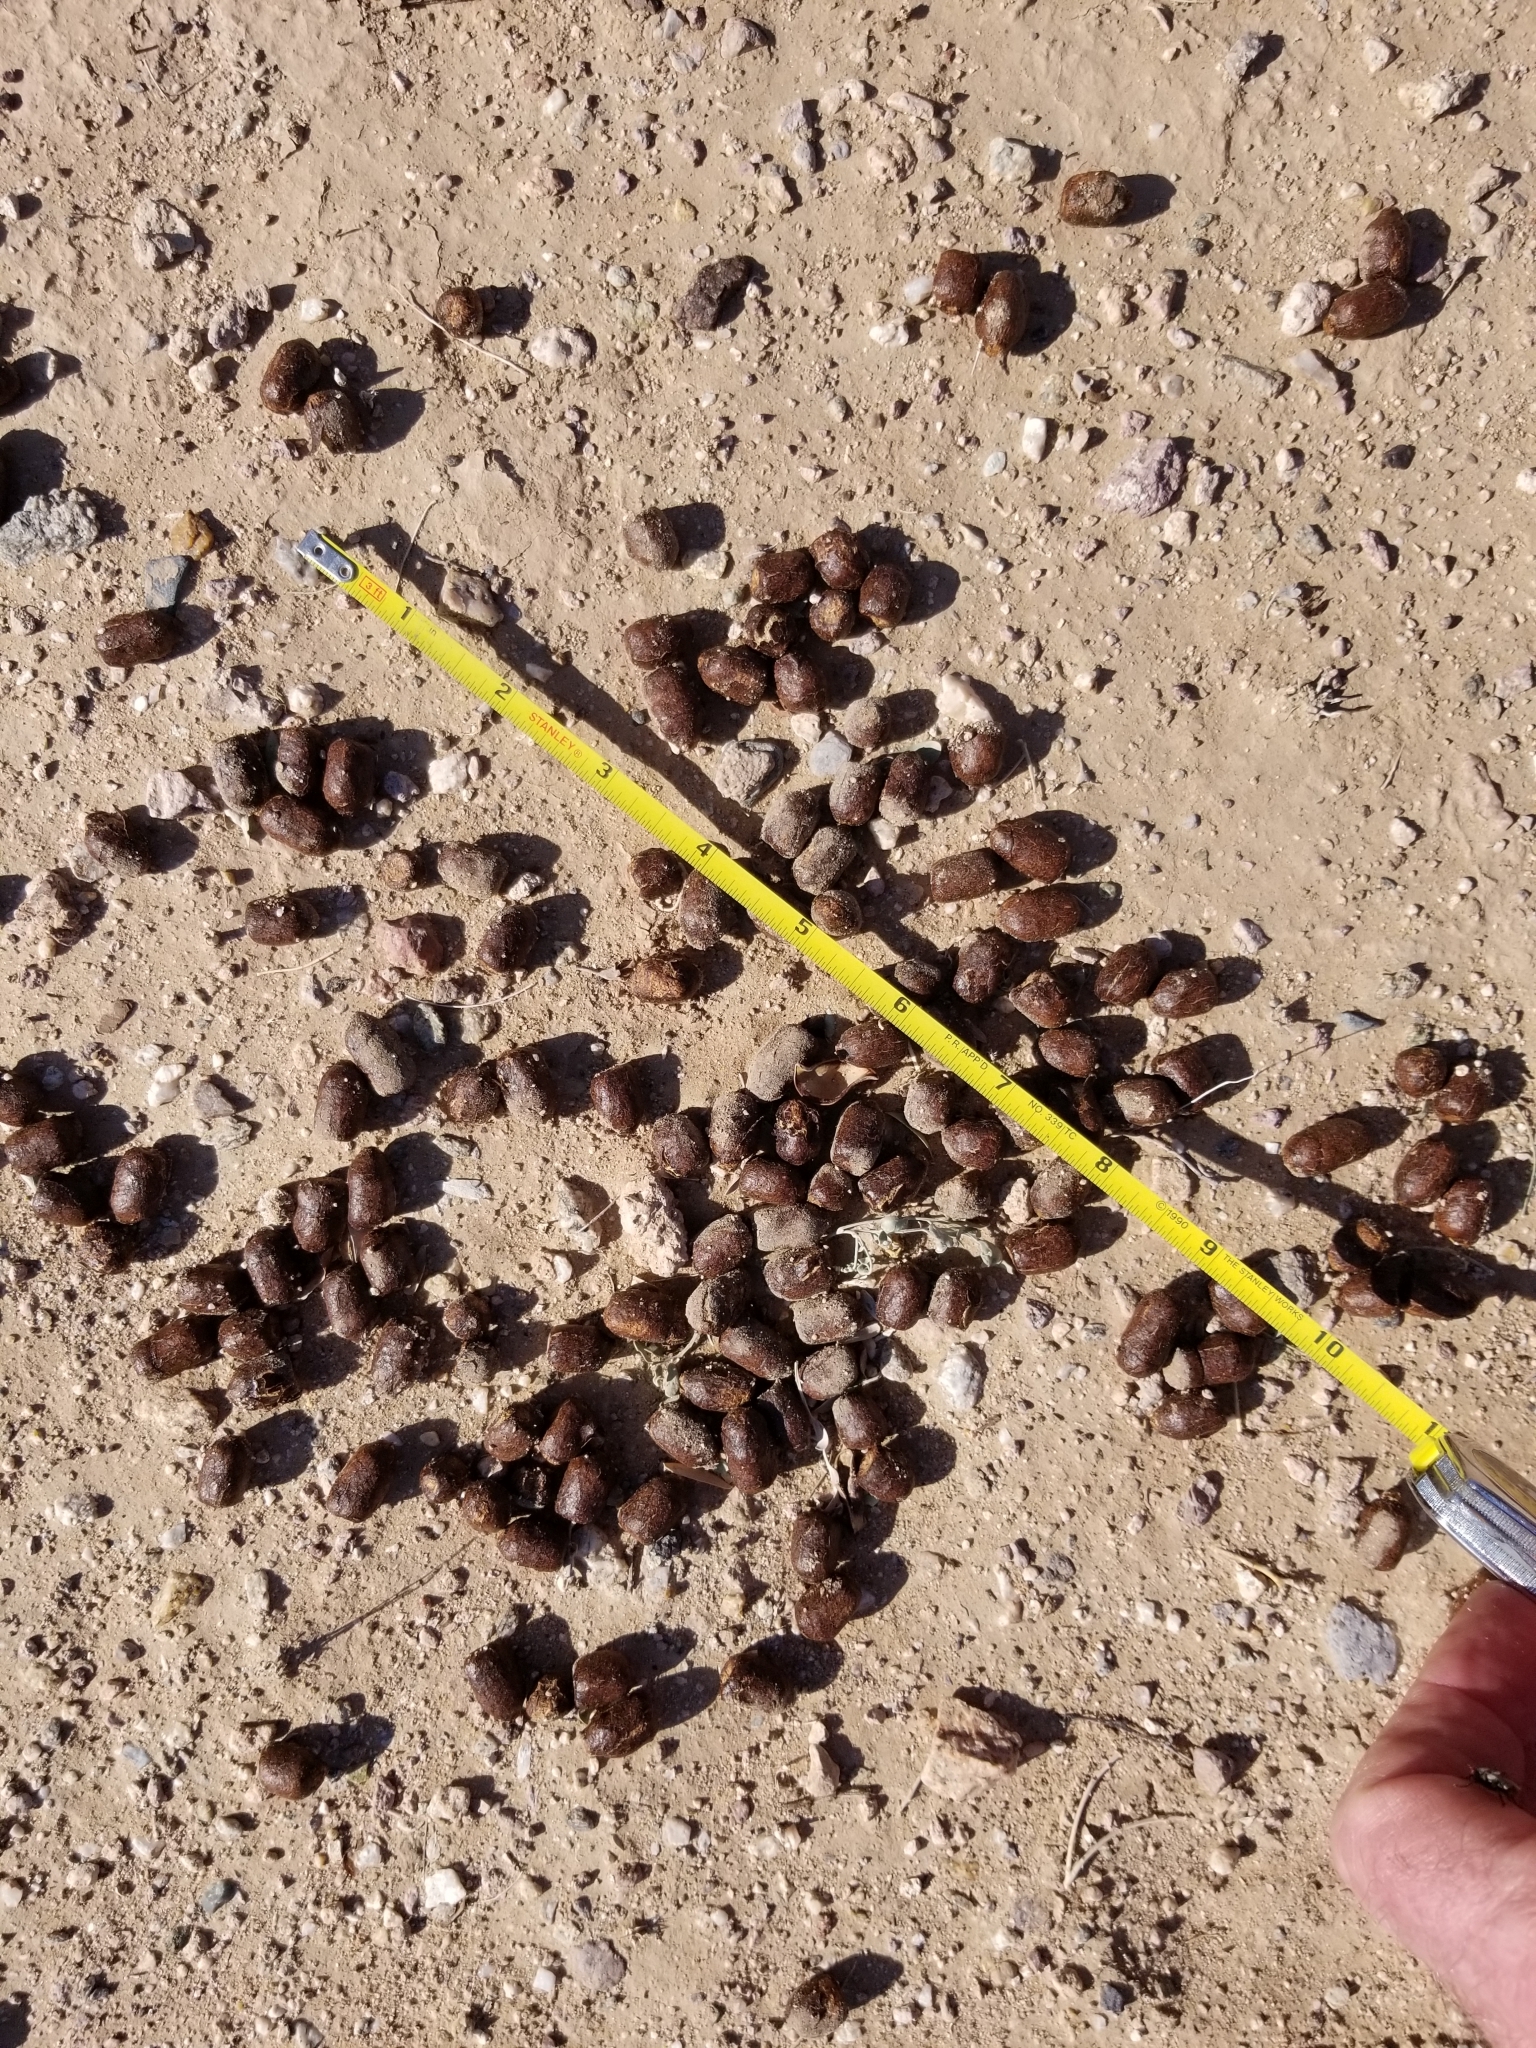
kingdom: Animalia
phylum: Chordata
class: Mammalia
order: Artiodactyla
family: Cervidae
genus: Odocoileus
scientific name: Odocoileus hemionus
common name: Mule deer
